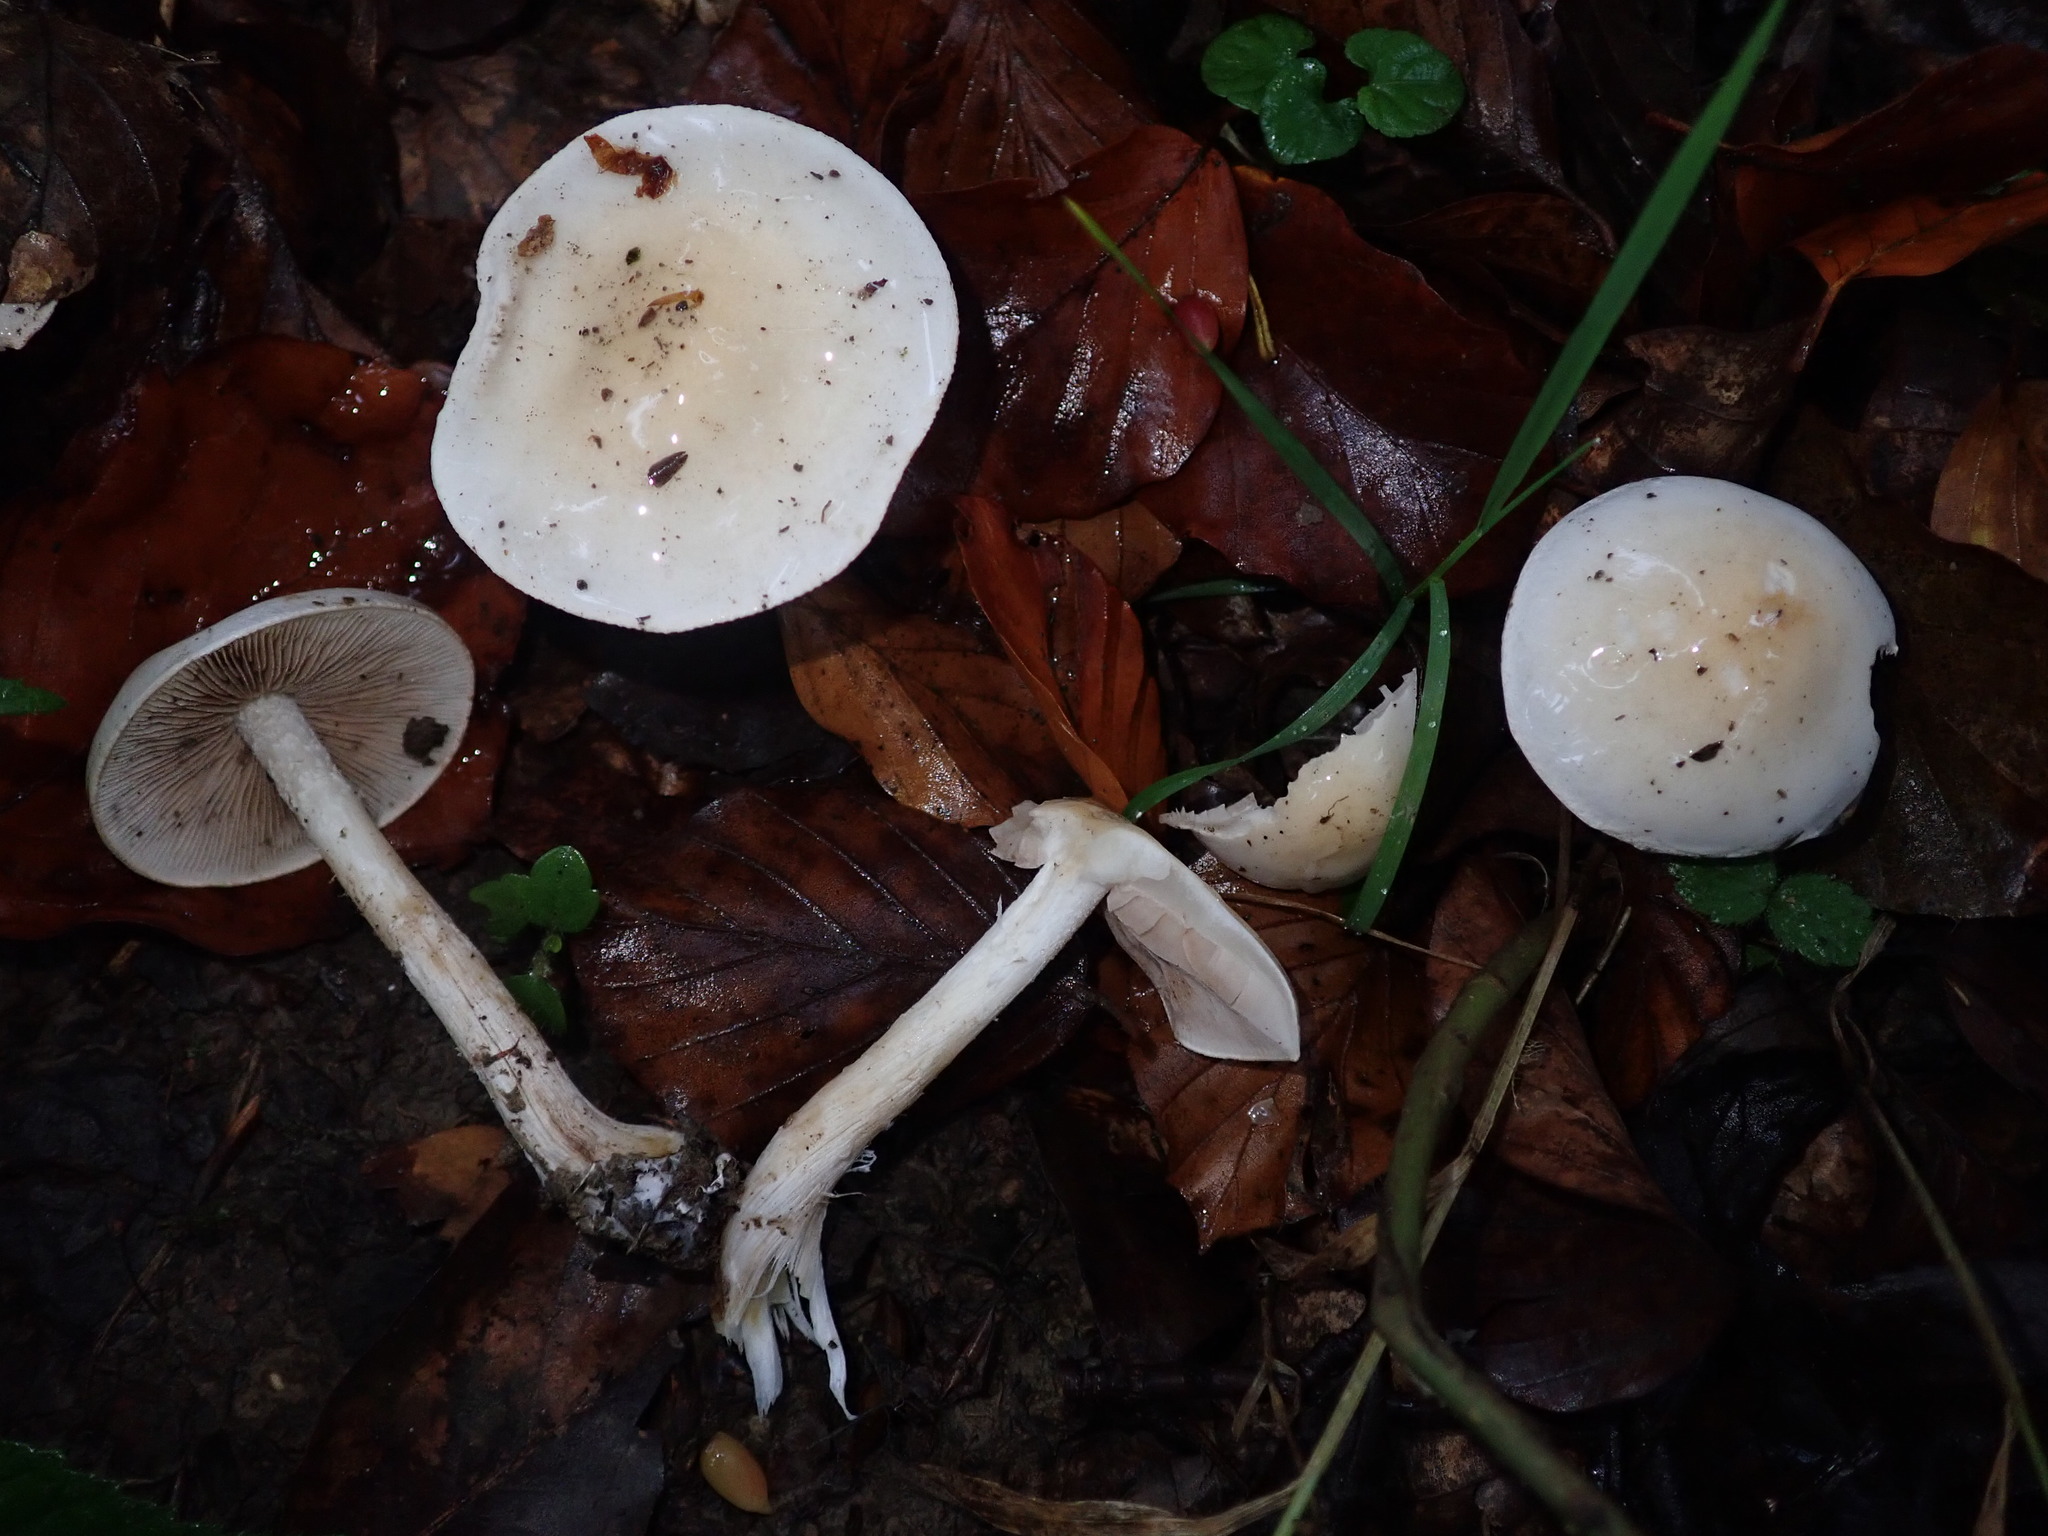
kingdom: Fungi
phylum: Basidiomycota
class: Agaricomycetes
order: Agaricales
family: Hygrophoraceae
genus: Hygrophorus
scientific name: Hygrophorus eburneus
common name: Ivory wax-cap
